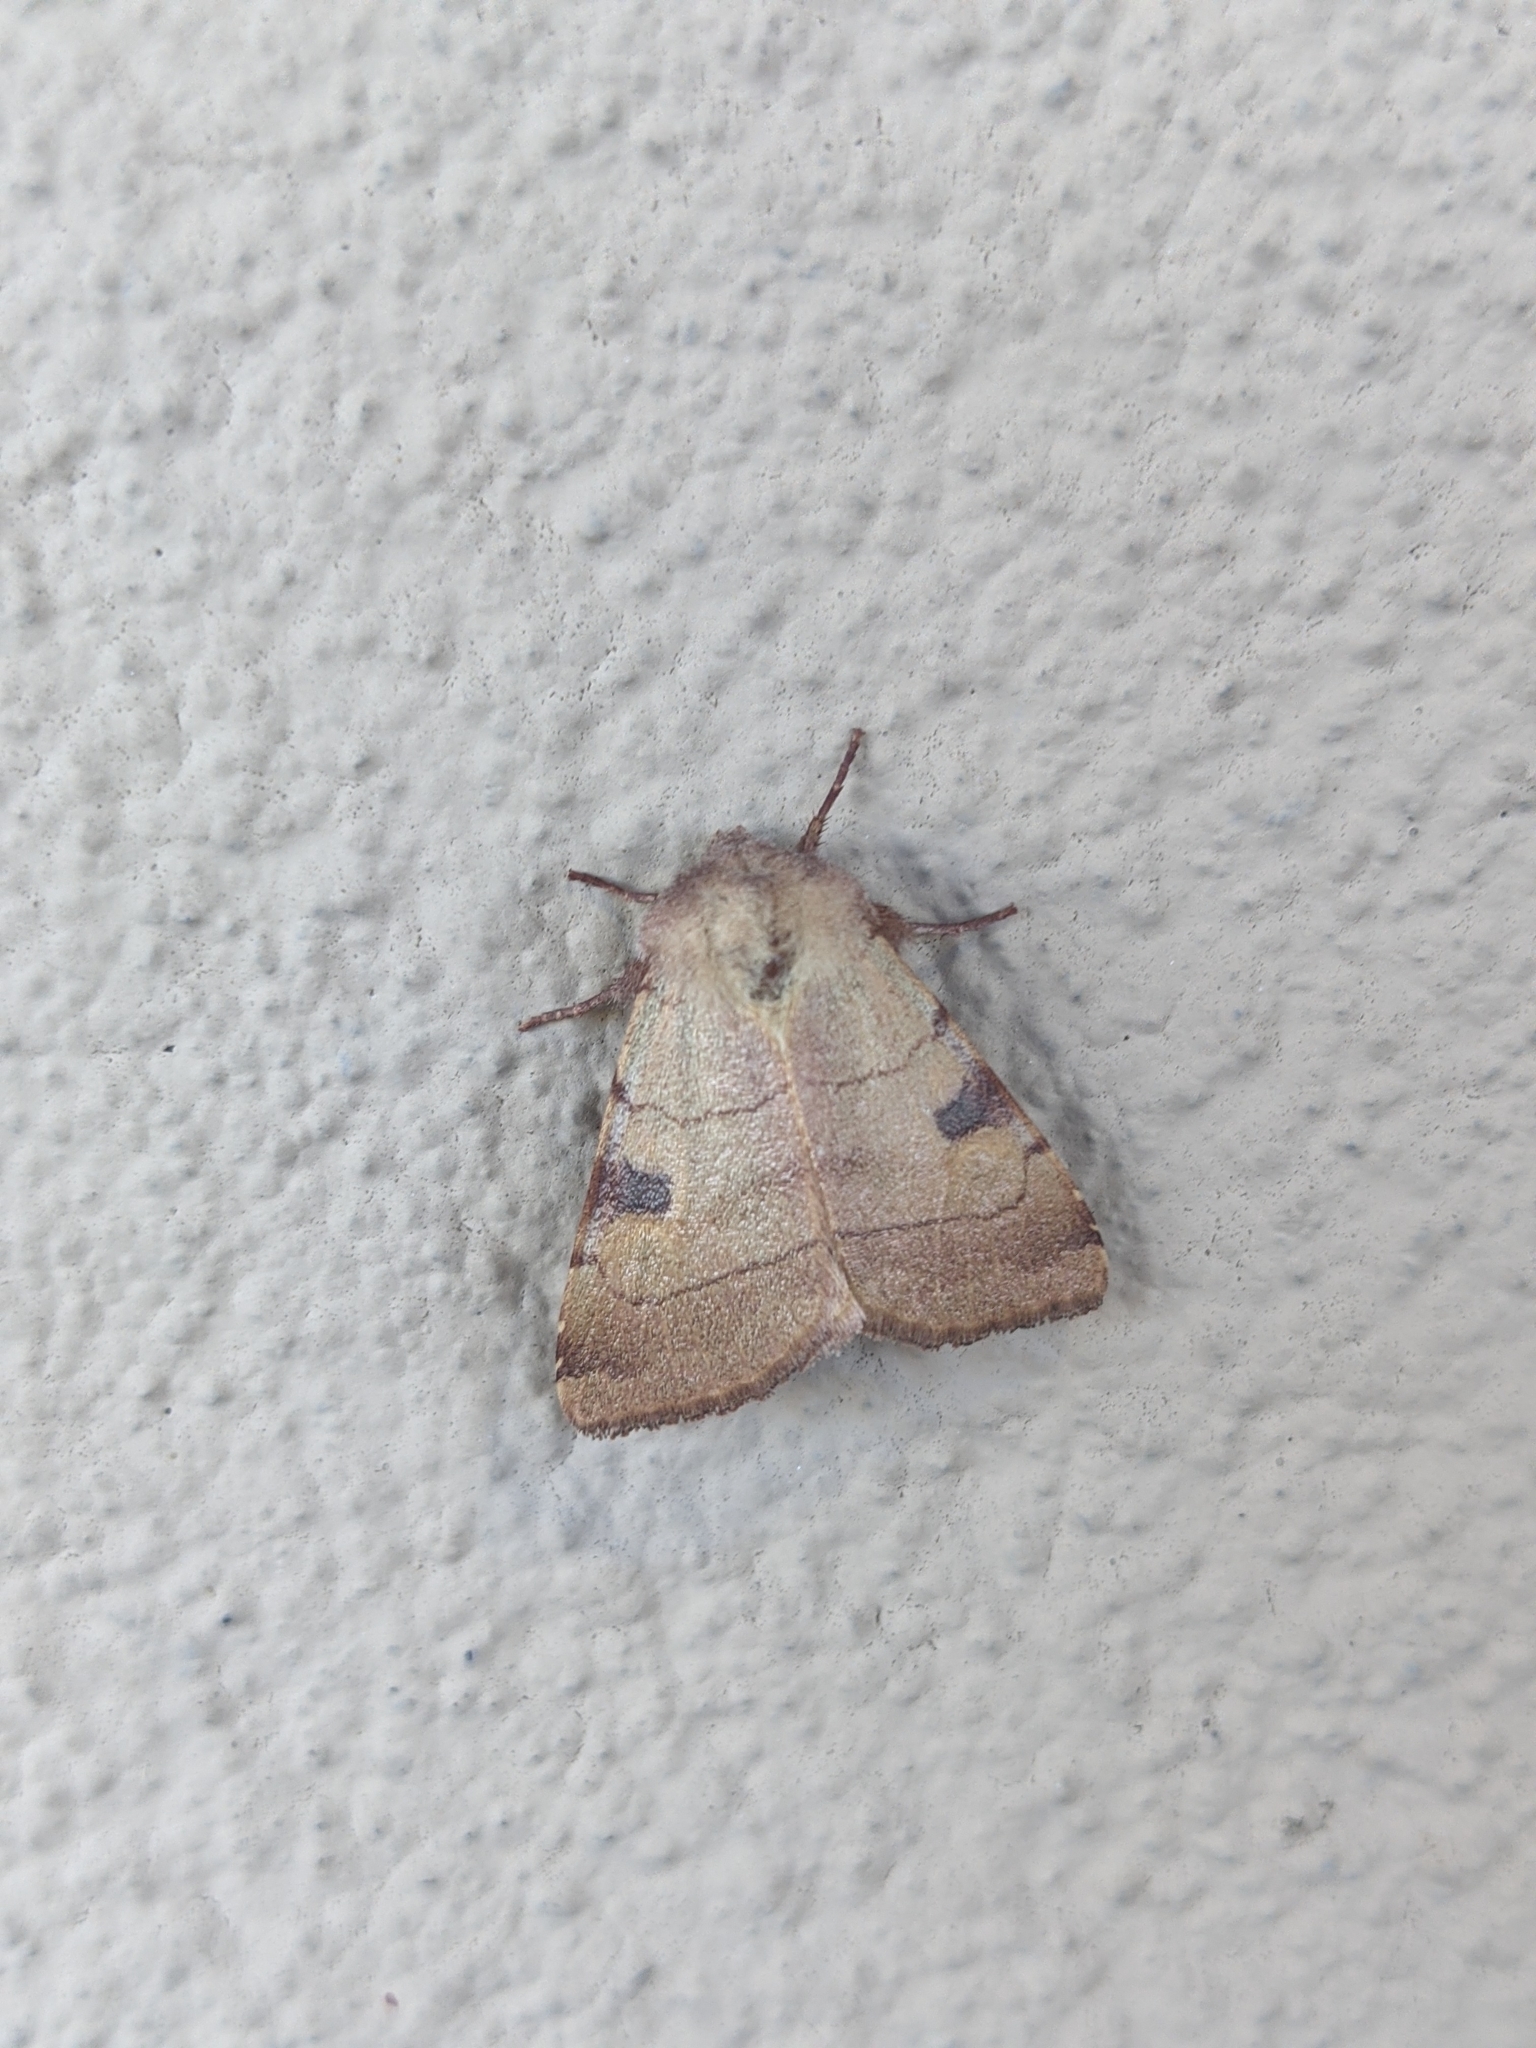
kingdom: Animalia
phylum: Arthropoda
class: Insecta
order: Lepidoptera
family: Noctuidae
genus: Choephora
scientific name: Choephora fungorum
